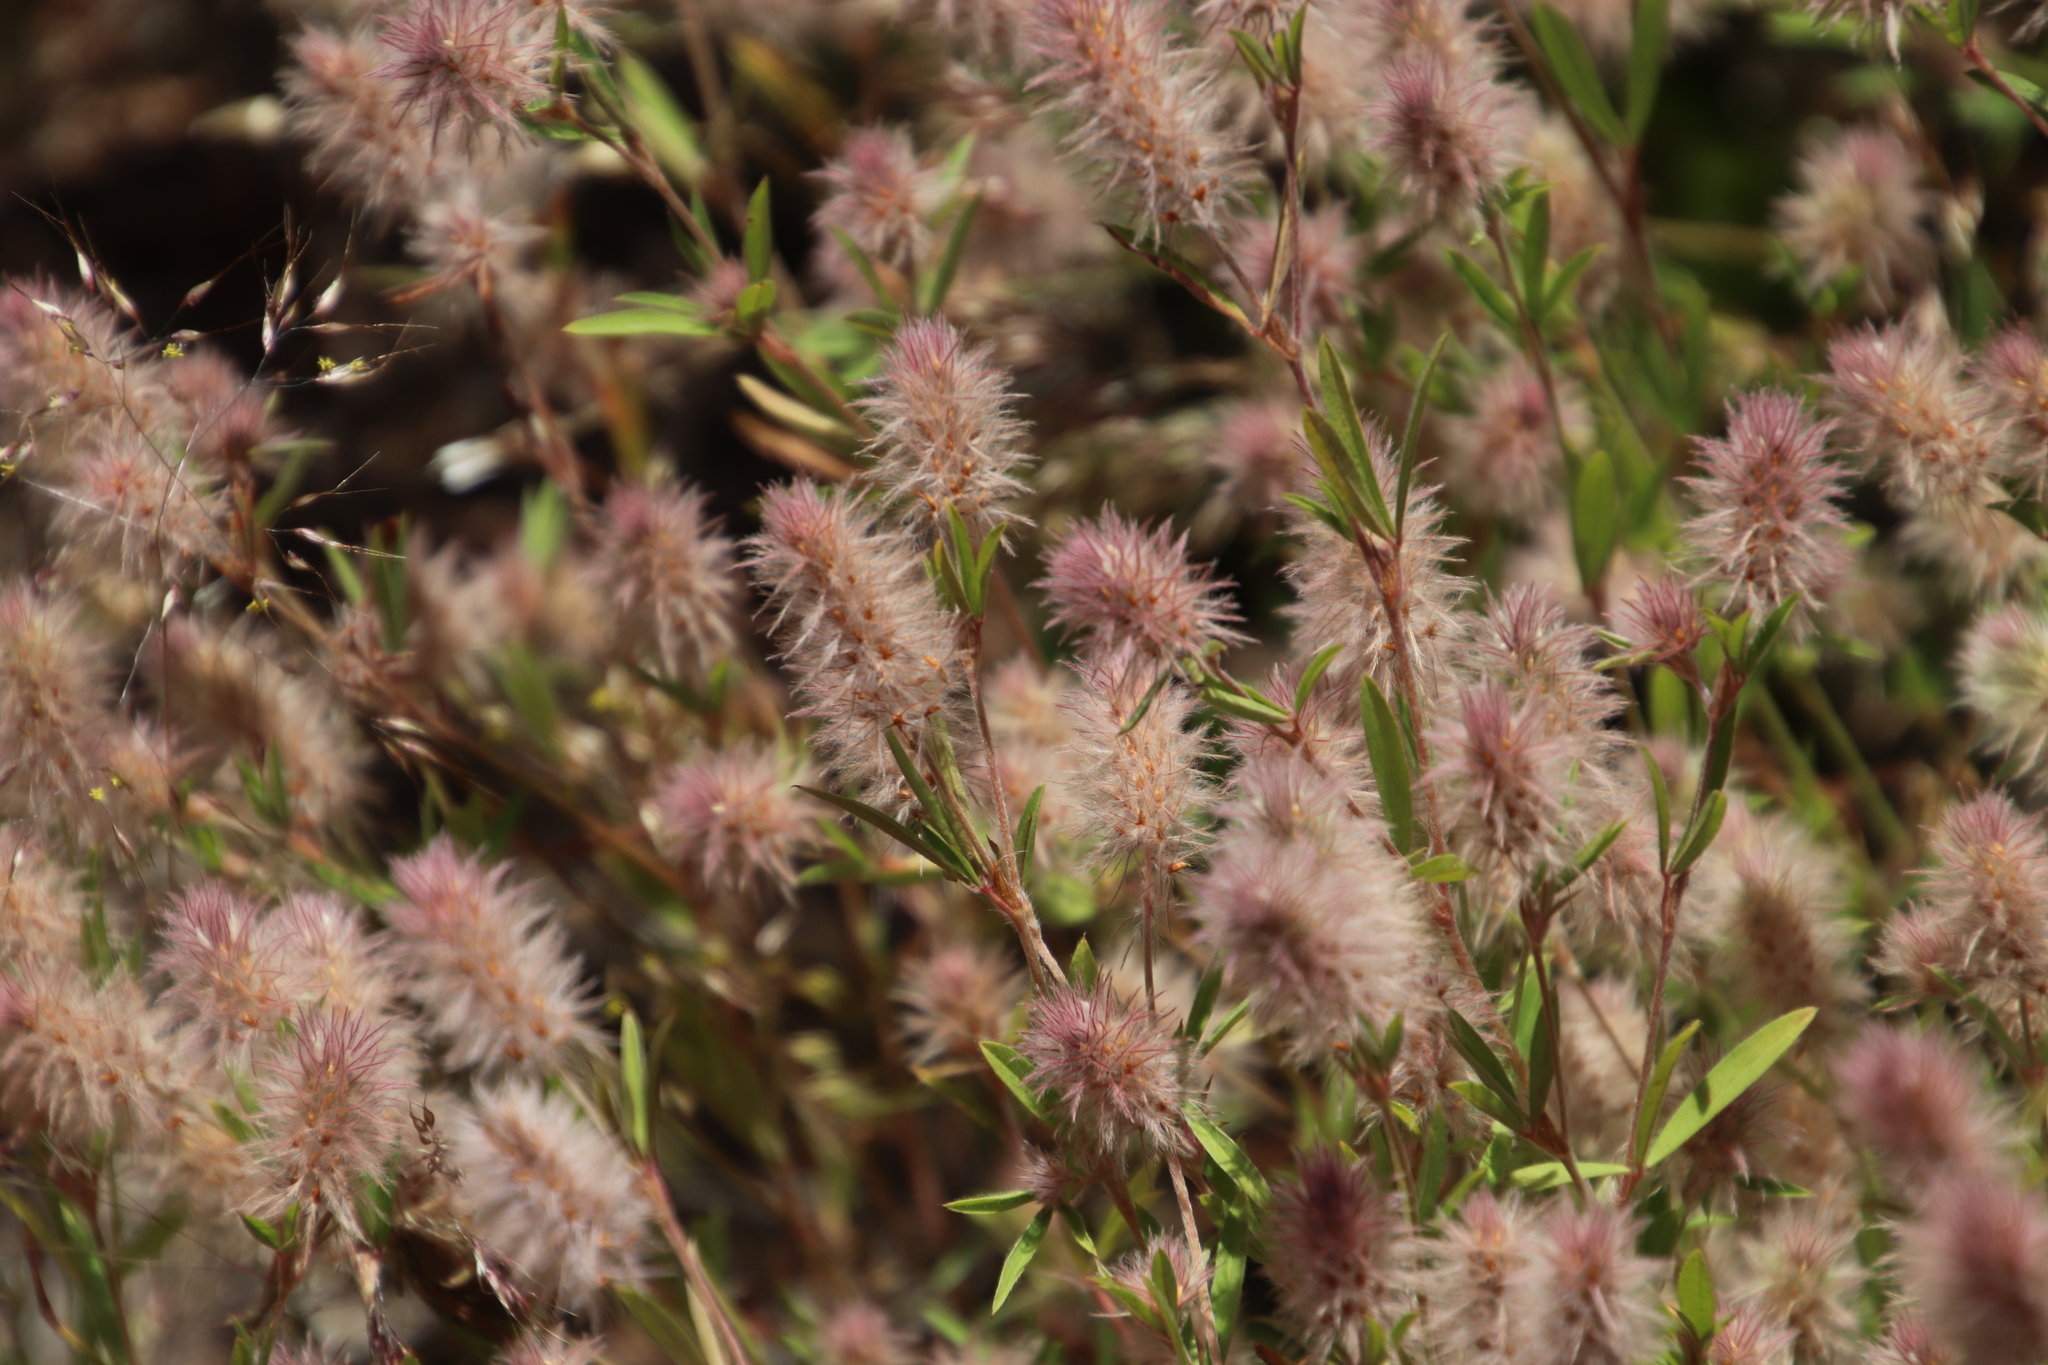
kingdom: Plantae
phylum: Tracheophyta
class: Magnoliopsida
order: Fabales
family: Fabaceae
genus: Trifolium
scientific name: Trifolium arvense
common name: Hare's-foot clover
